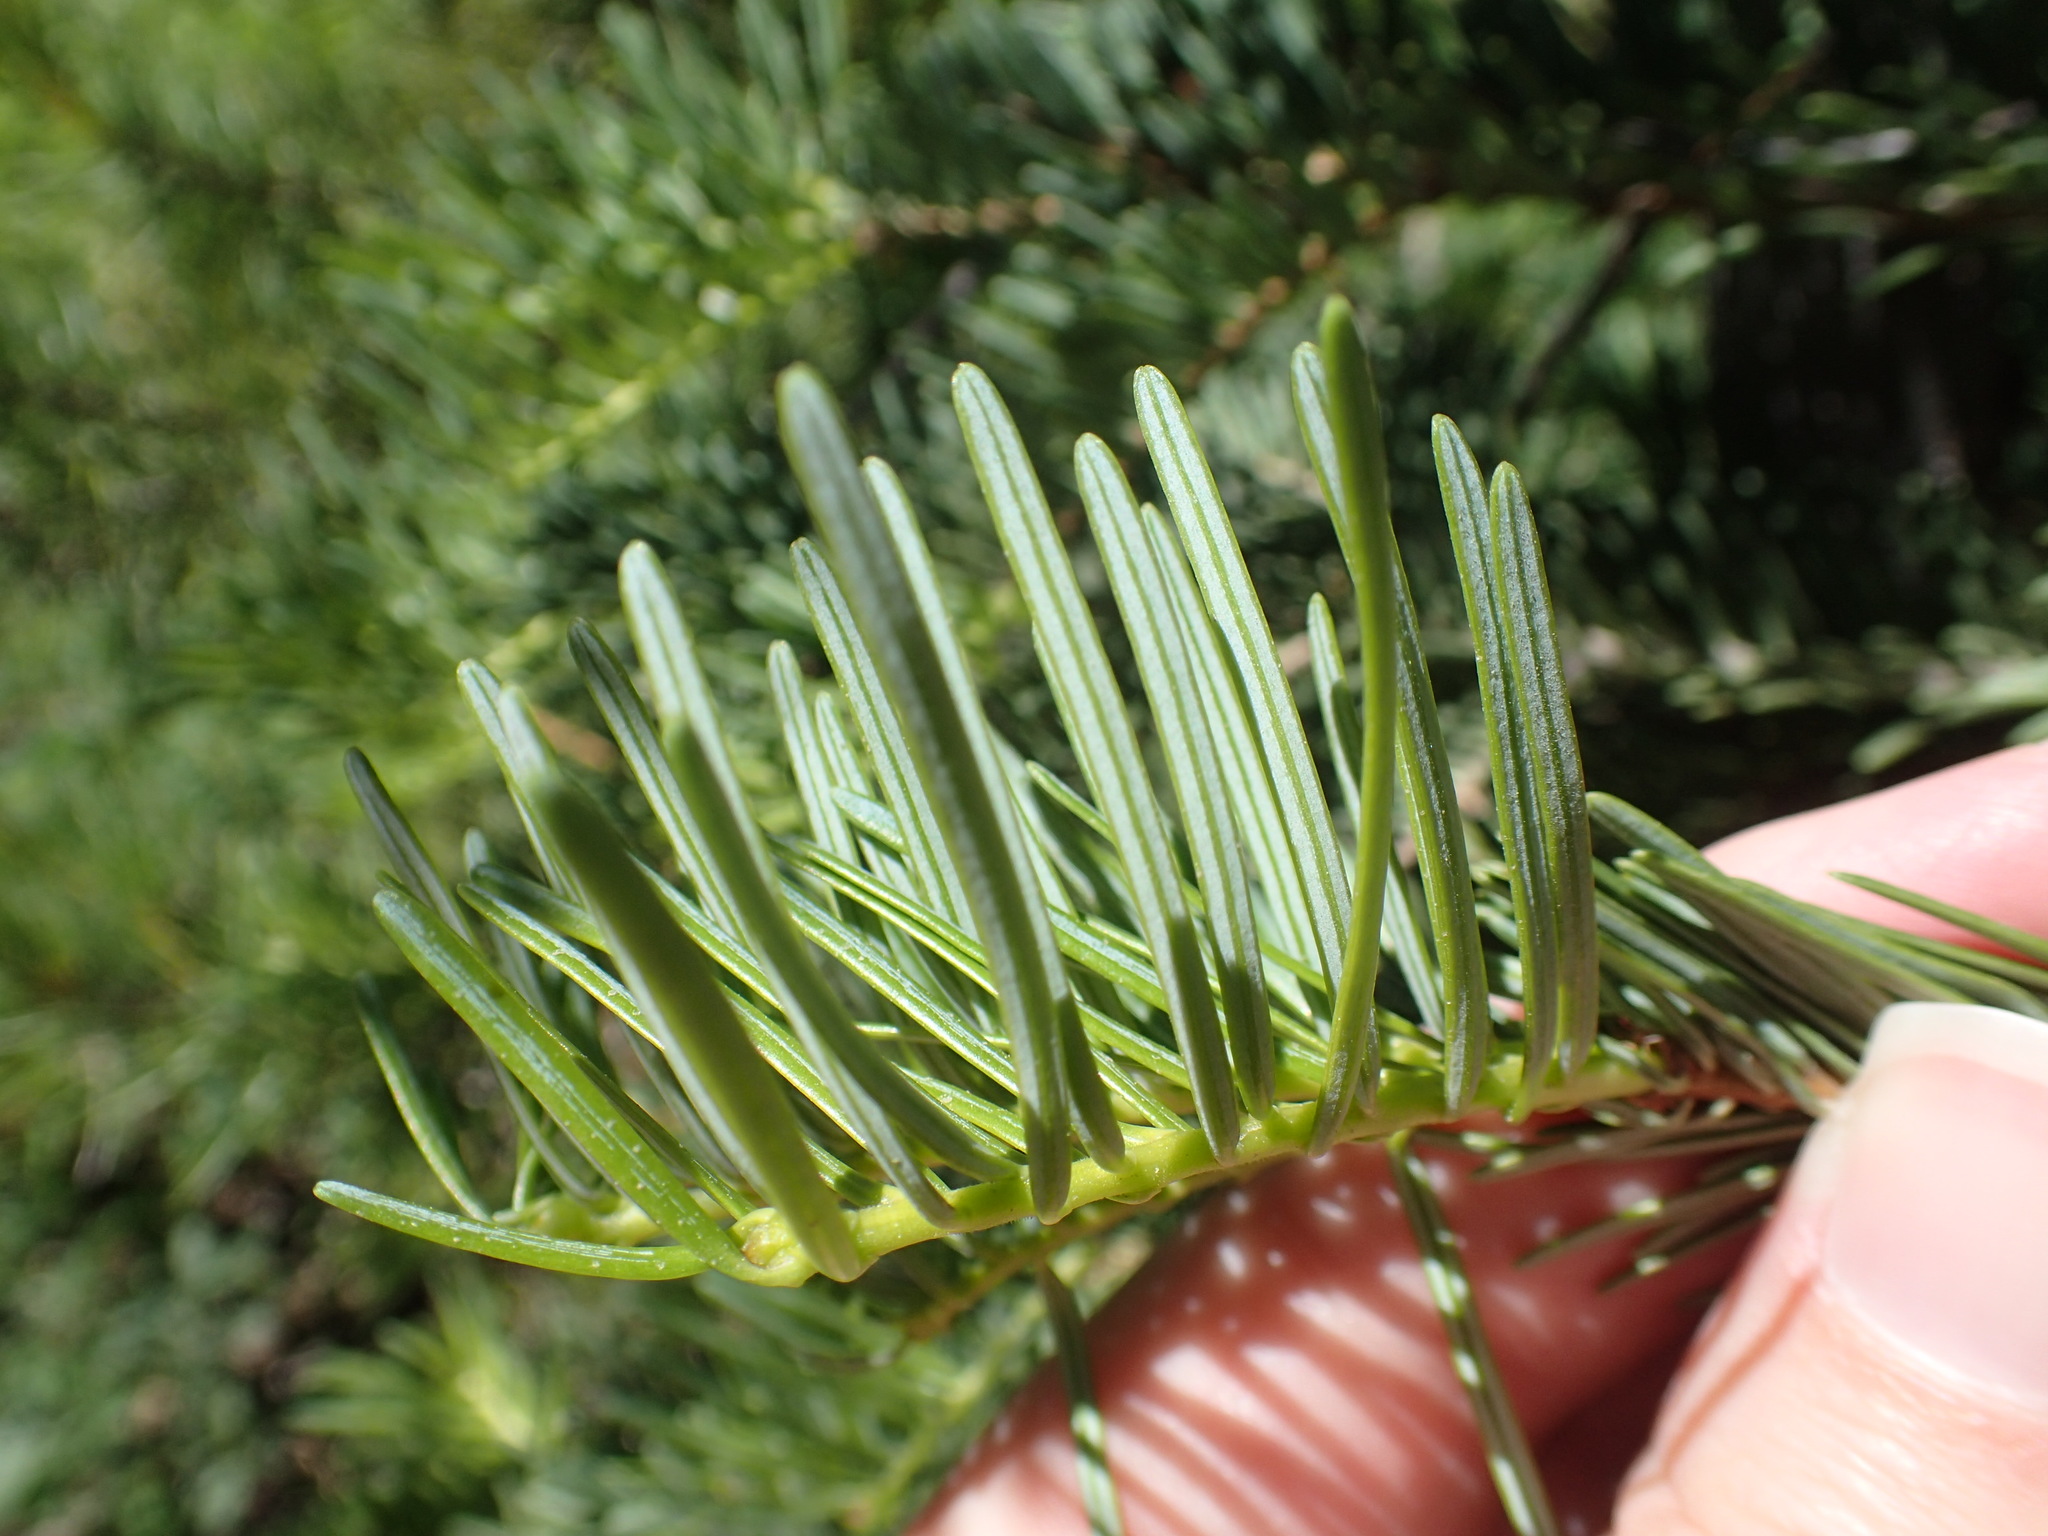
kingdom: Plantae
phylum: Tracheophyta
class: Pinopsida
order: Pinales
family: Pinaceae
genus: Abies
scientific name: Abies concolor
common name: Colorado fir
